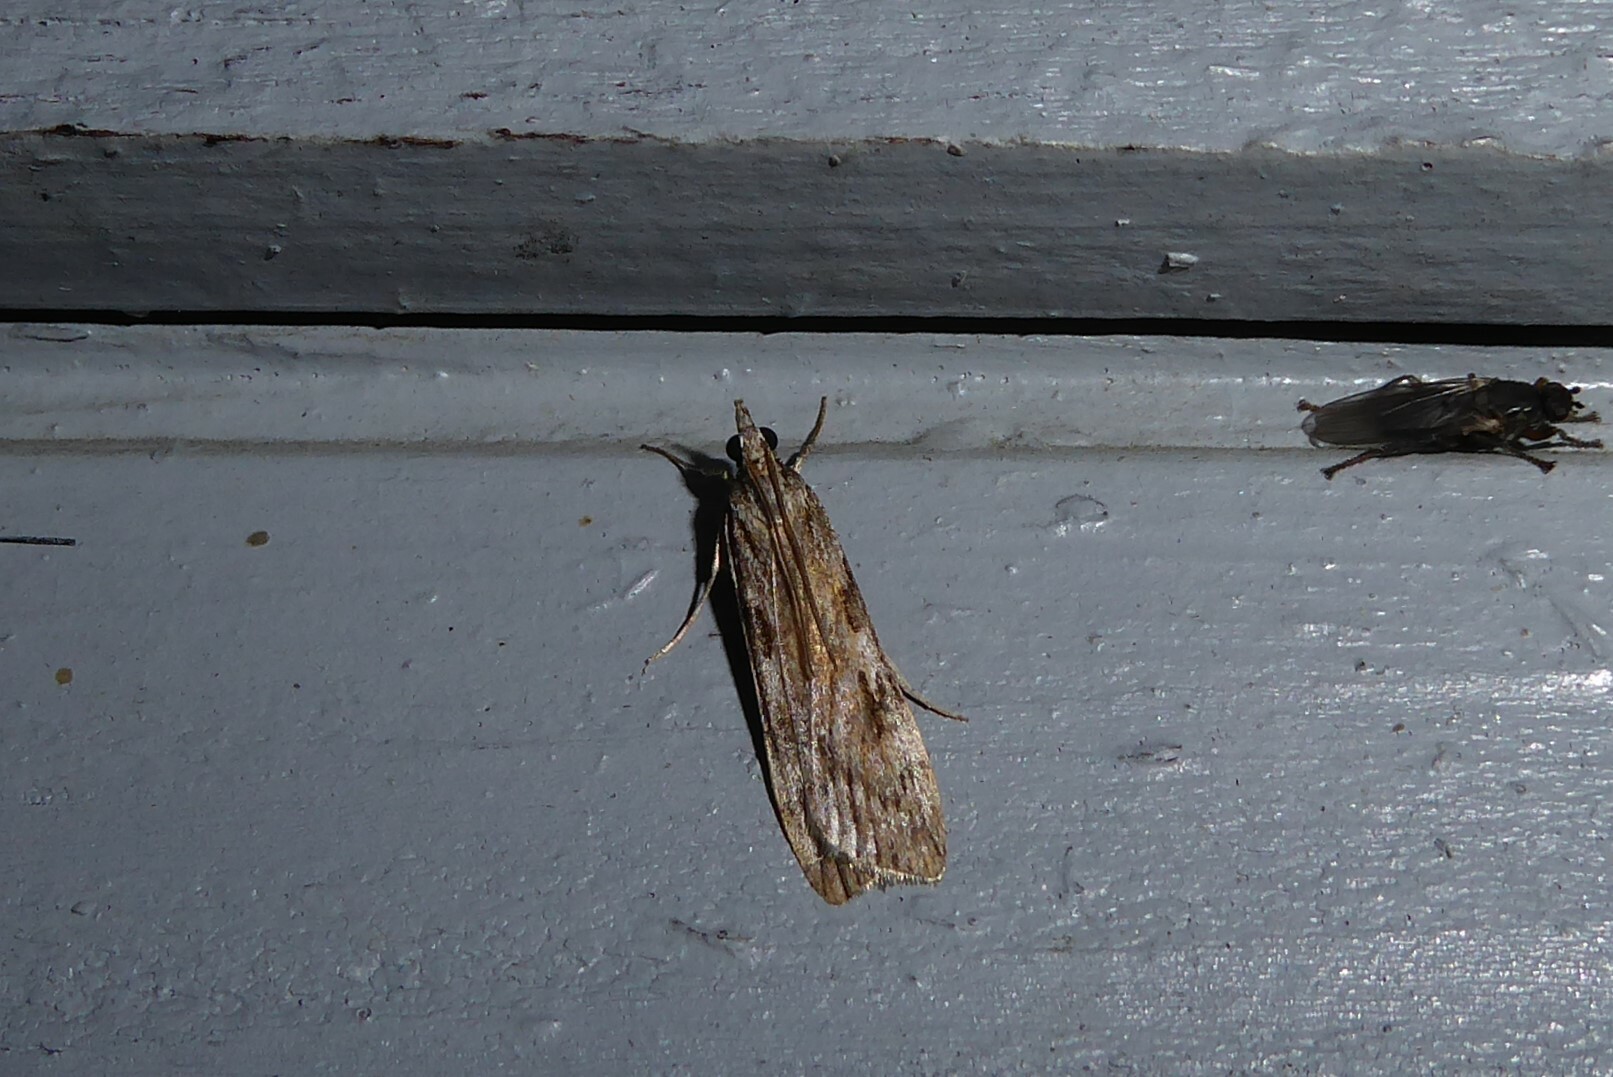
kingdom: Animalia
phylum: Arthropoda
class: Insecta
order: Lepidoptera
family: Crambidae
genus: Scoparia
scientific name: Scoparia halopis
